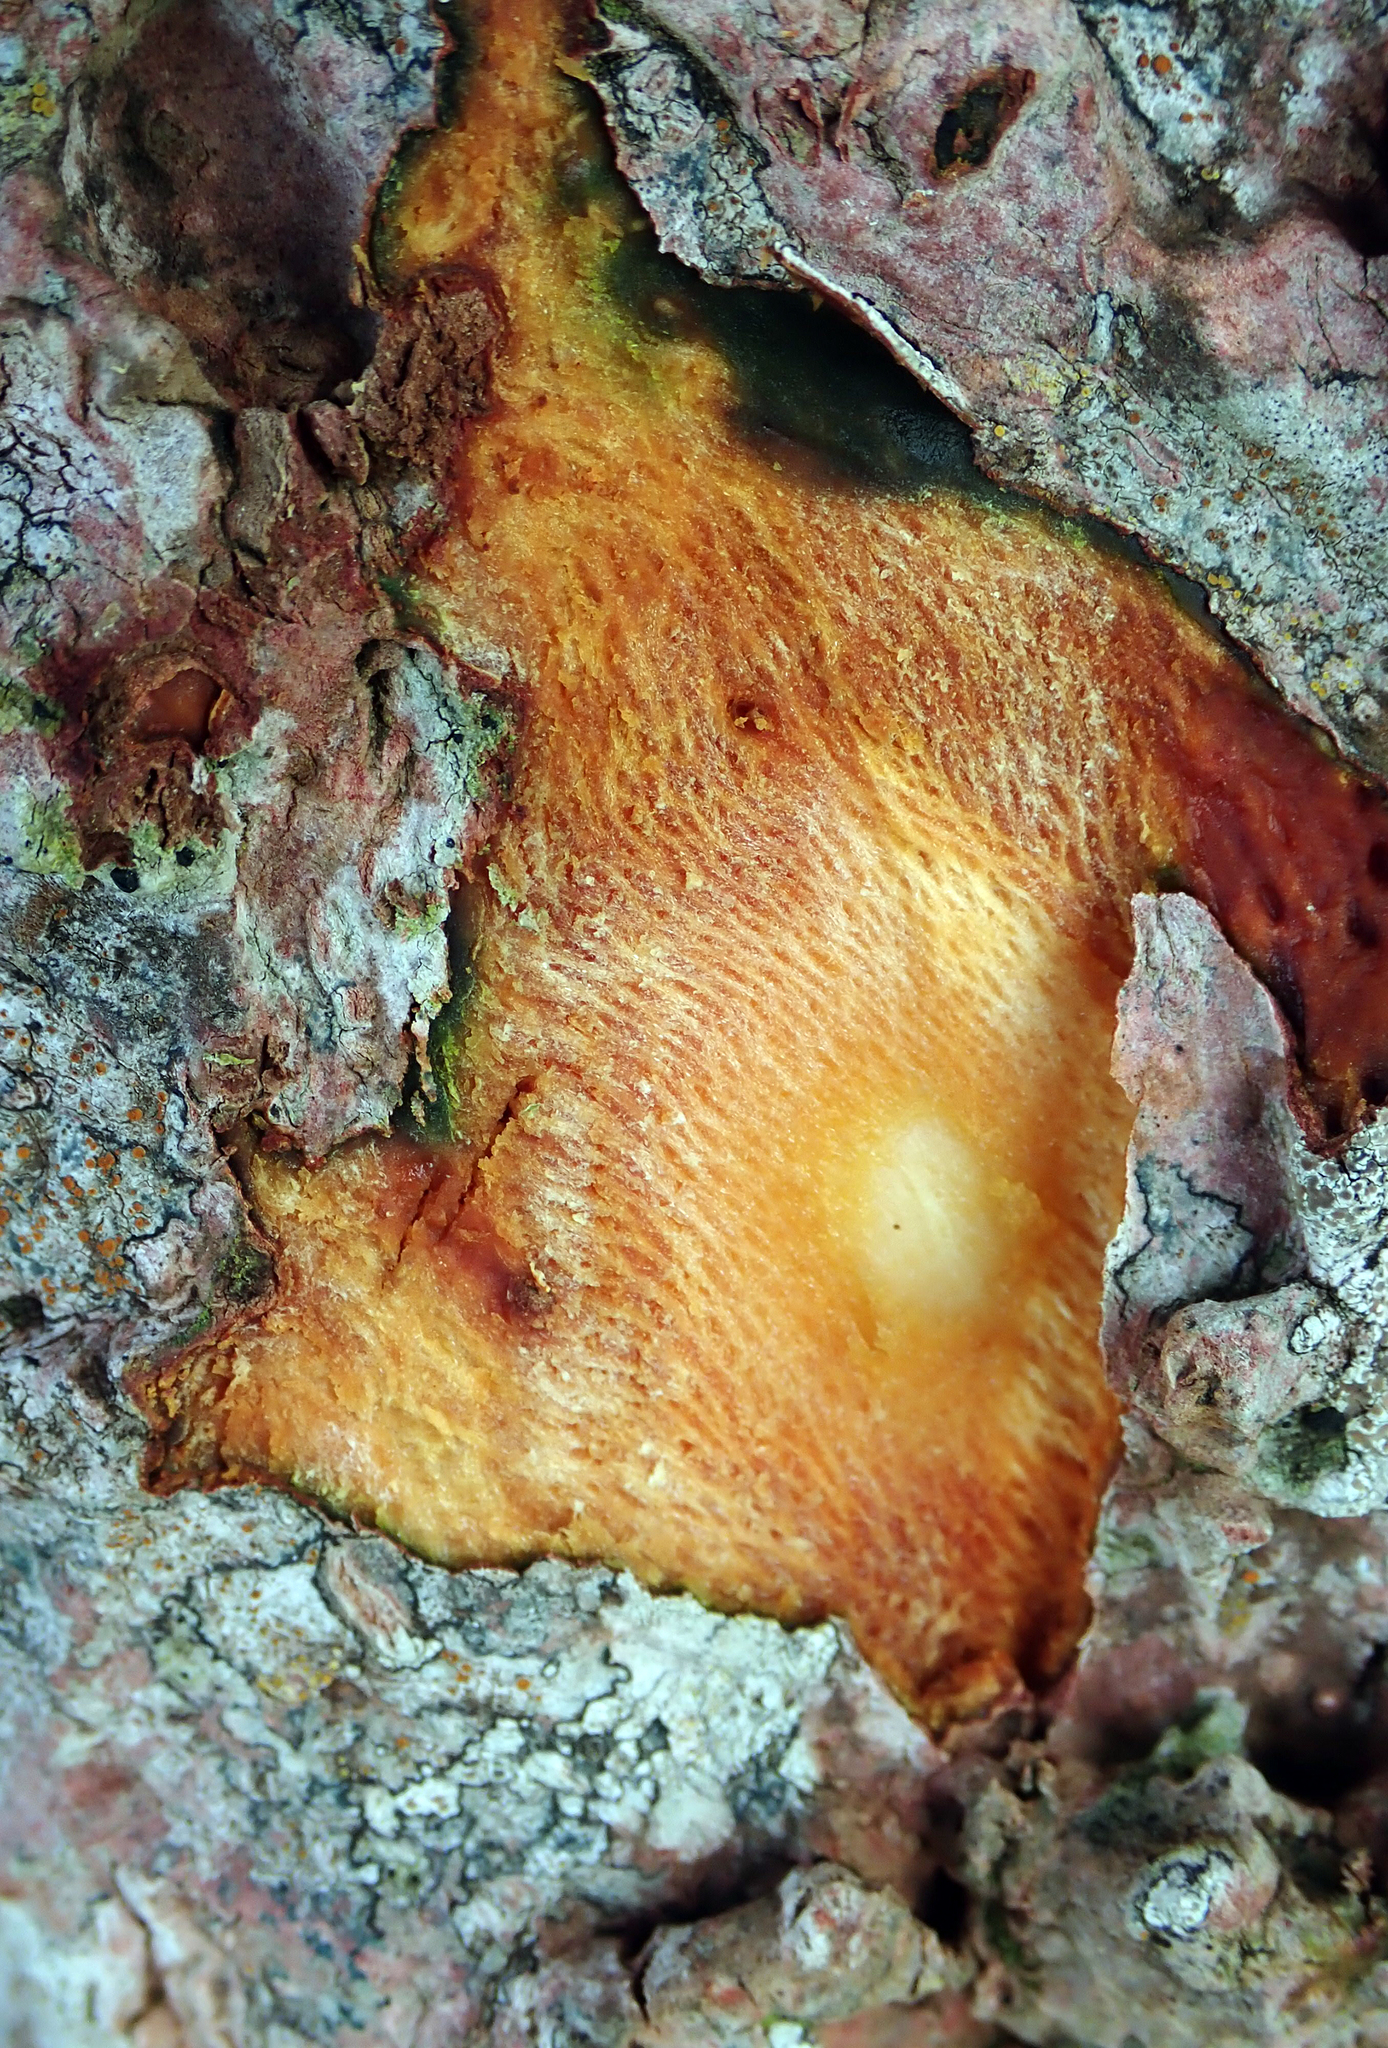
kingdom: Plantae
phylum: Tracheophyta
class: Magnoliopsida
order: Gentianales
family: Rubiaceae
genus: Coprosma
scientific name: Coprosma chathamica
